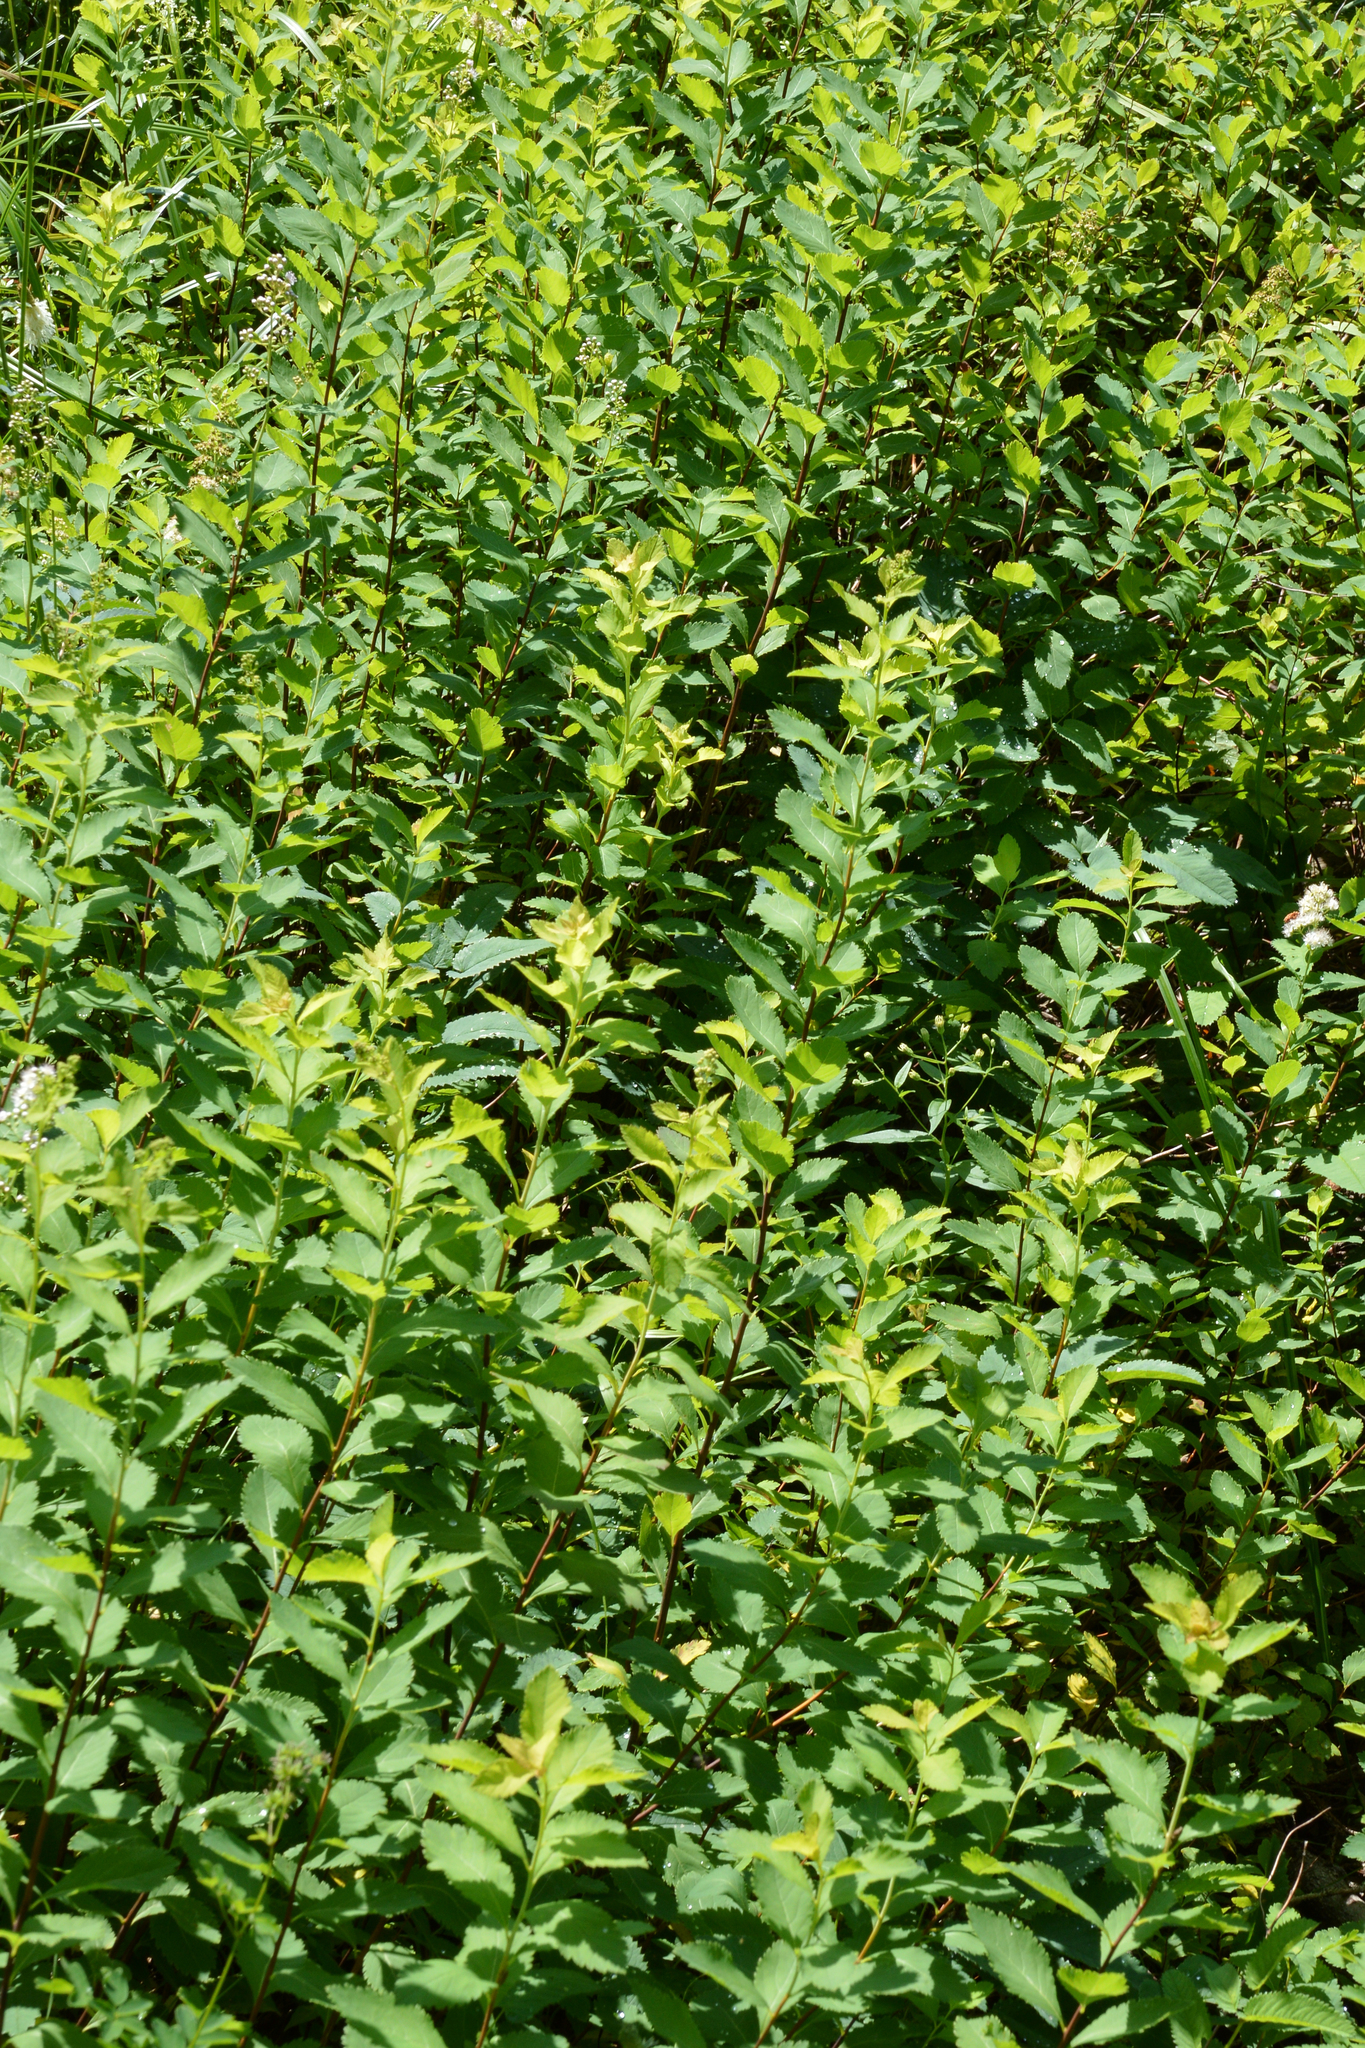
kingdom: Plantae
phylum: Tracheophyta
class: Magnoliopsida
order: Rosales
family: Rosaceae
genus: Spiraea
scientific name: Spiraea alba
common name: Pale bridewort
